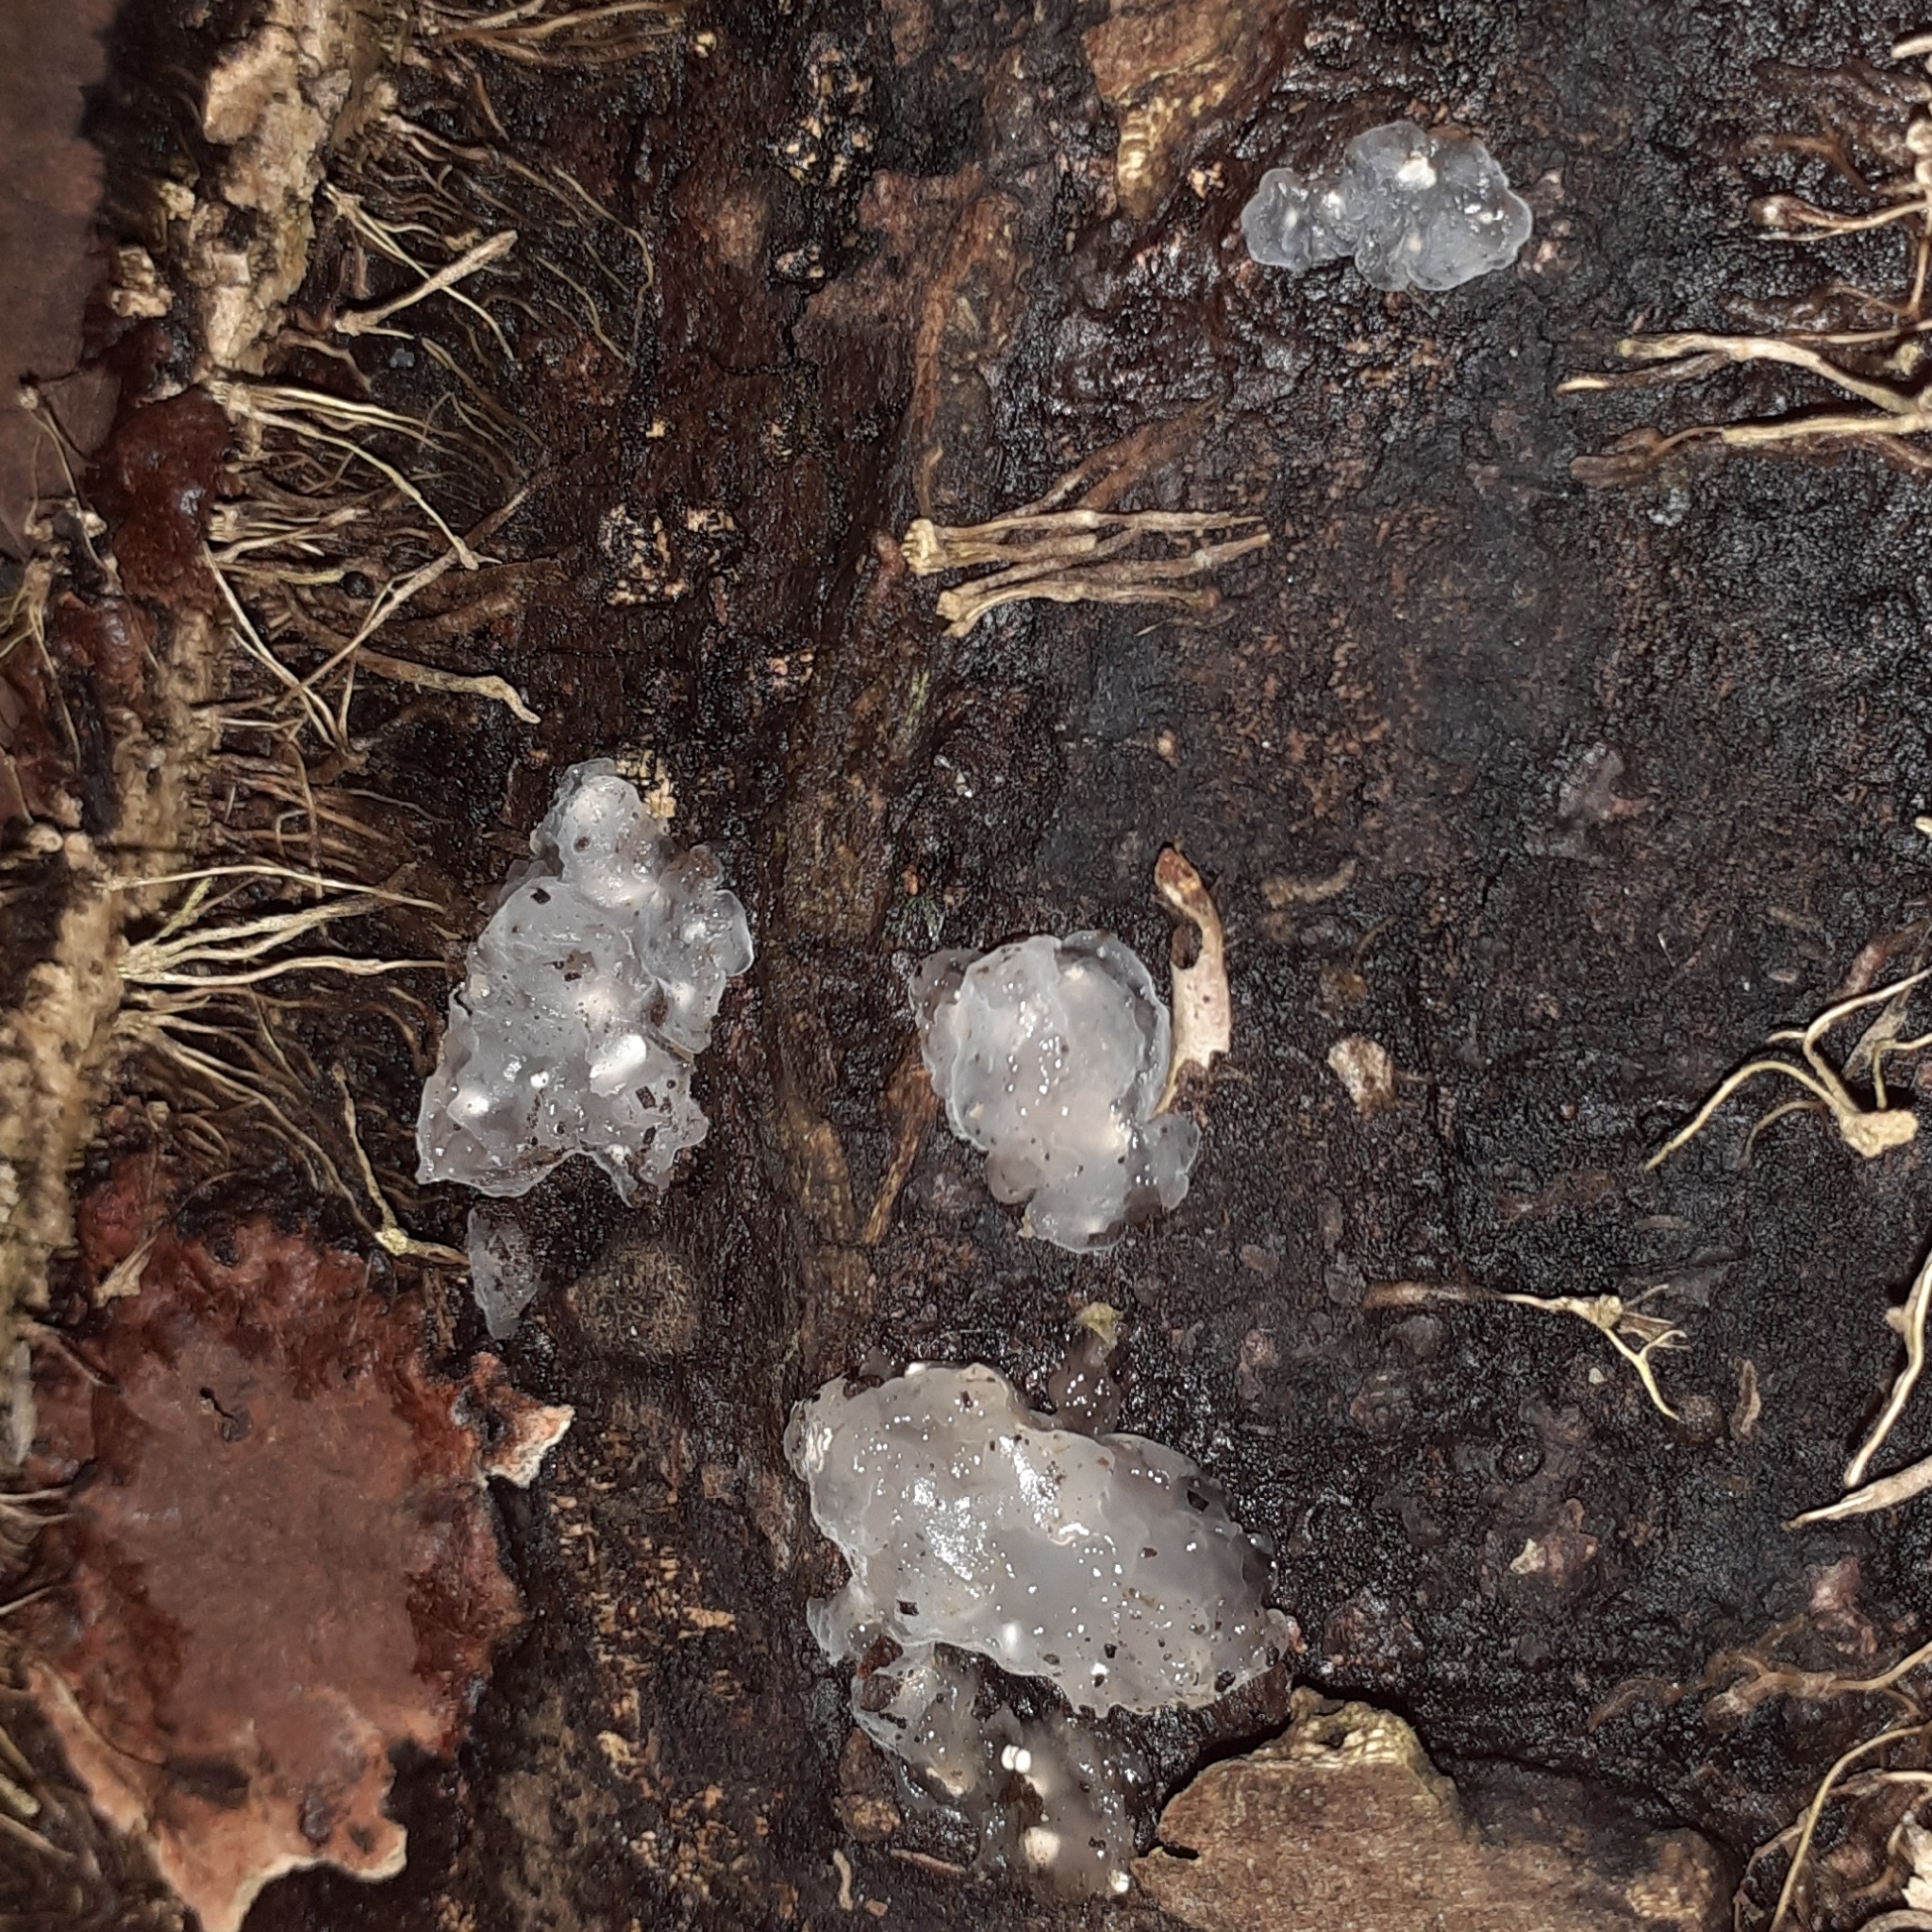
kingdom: Fungi
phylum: Basidiomycota
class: Agaricomycetes
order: Auriculariales
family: Hyaloriaceae
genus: Myxarium
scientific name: Myxarium nucleatum
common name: Crystal brain fungus
